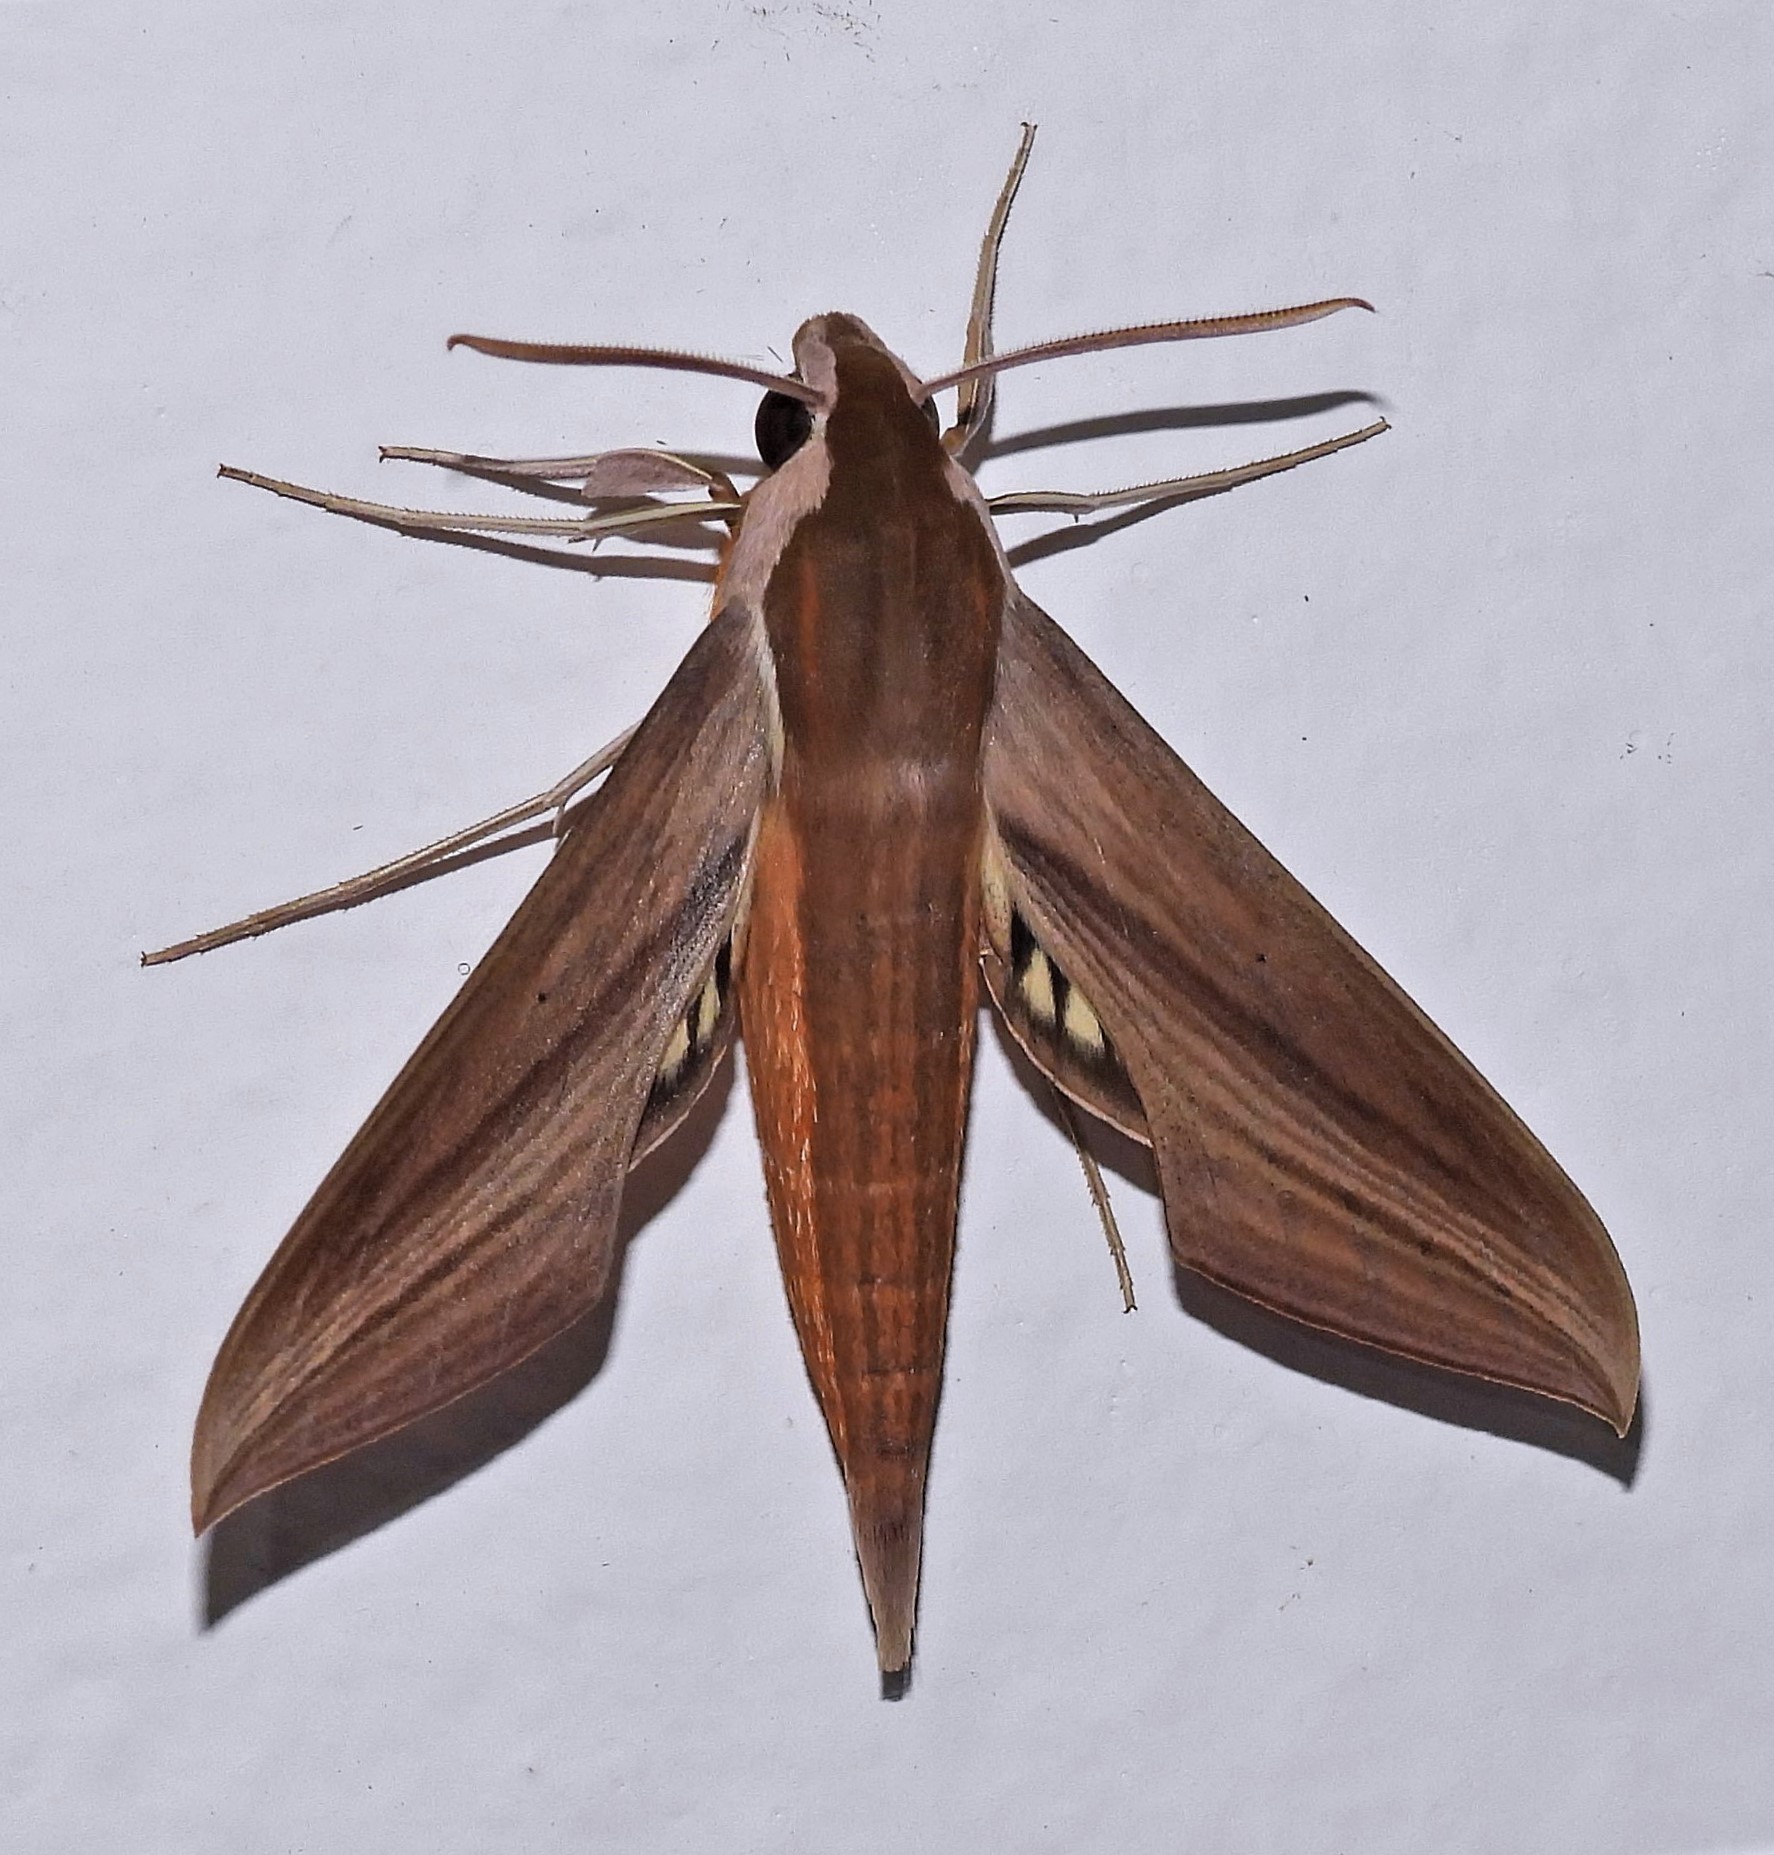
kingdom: Animalia
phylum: Arthropoda
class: Insecta
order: Lepidoptera
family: Sphingidae
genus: Xylophanes
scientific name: Xylophanes tersa
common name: Tersa sphinx
